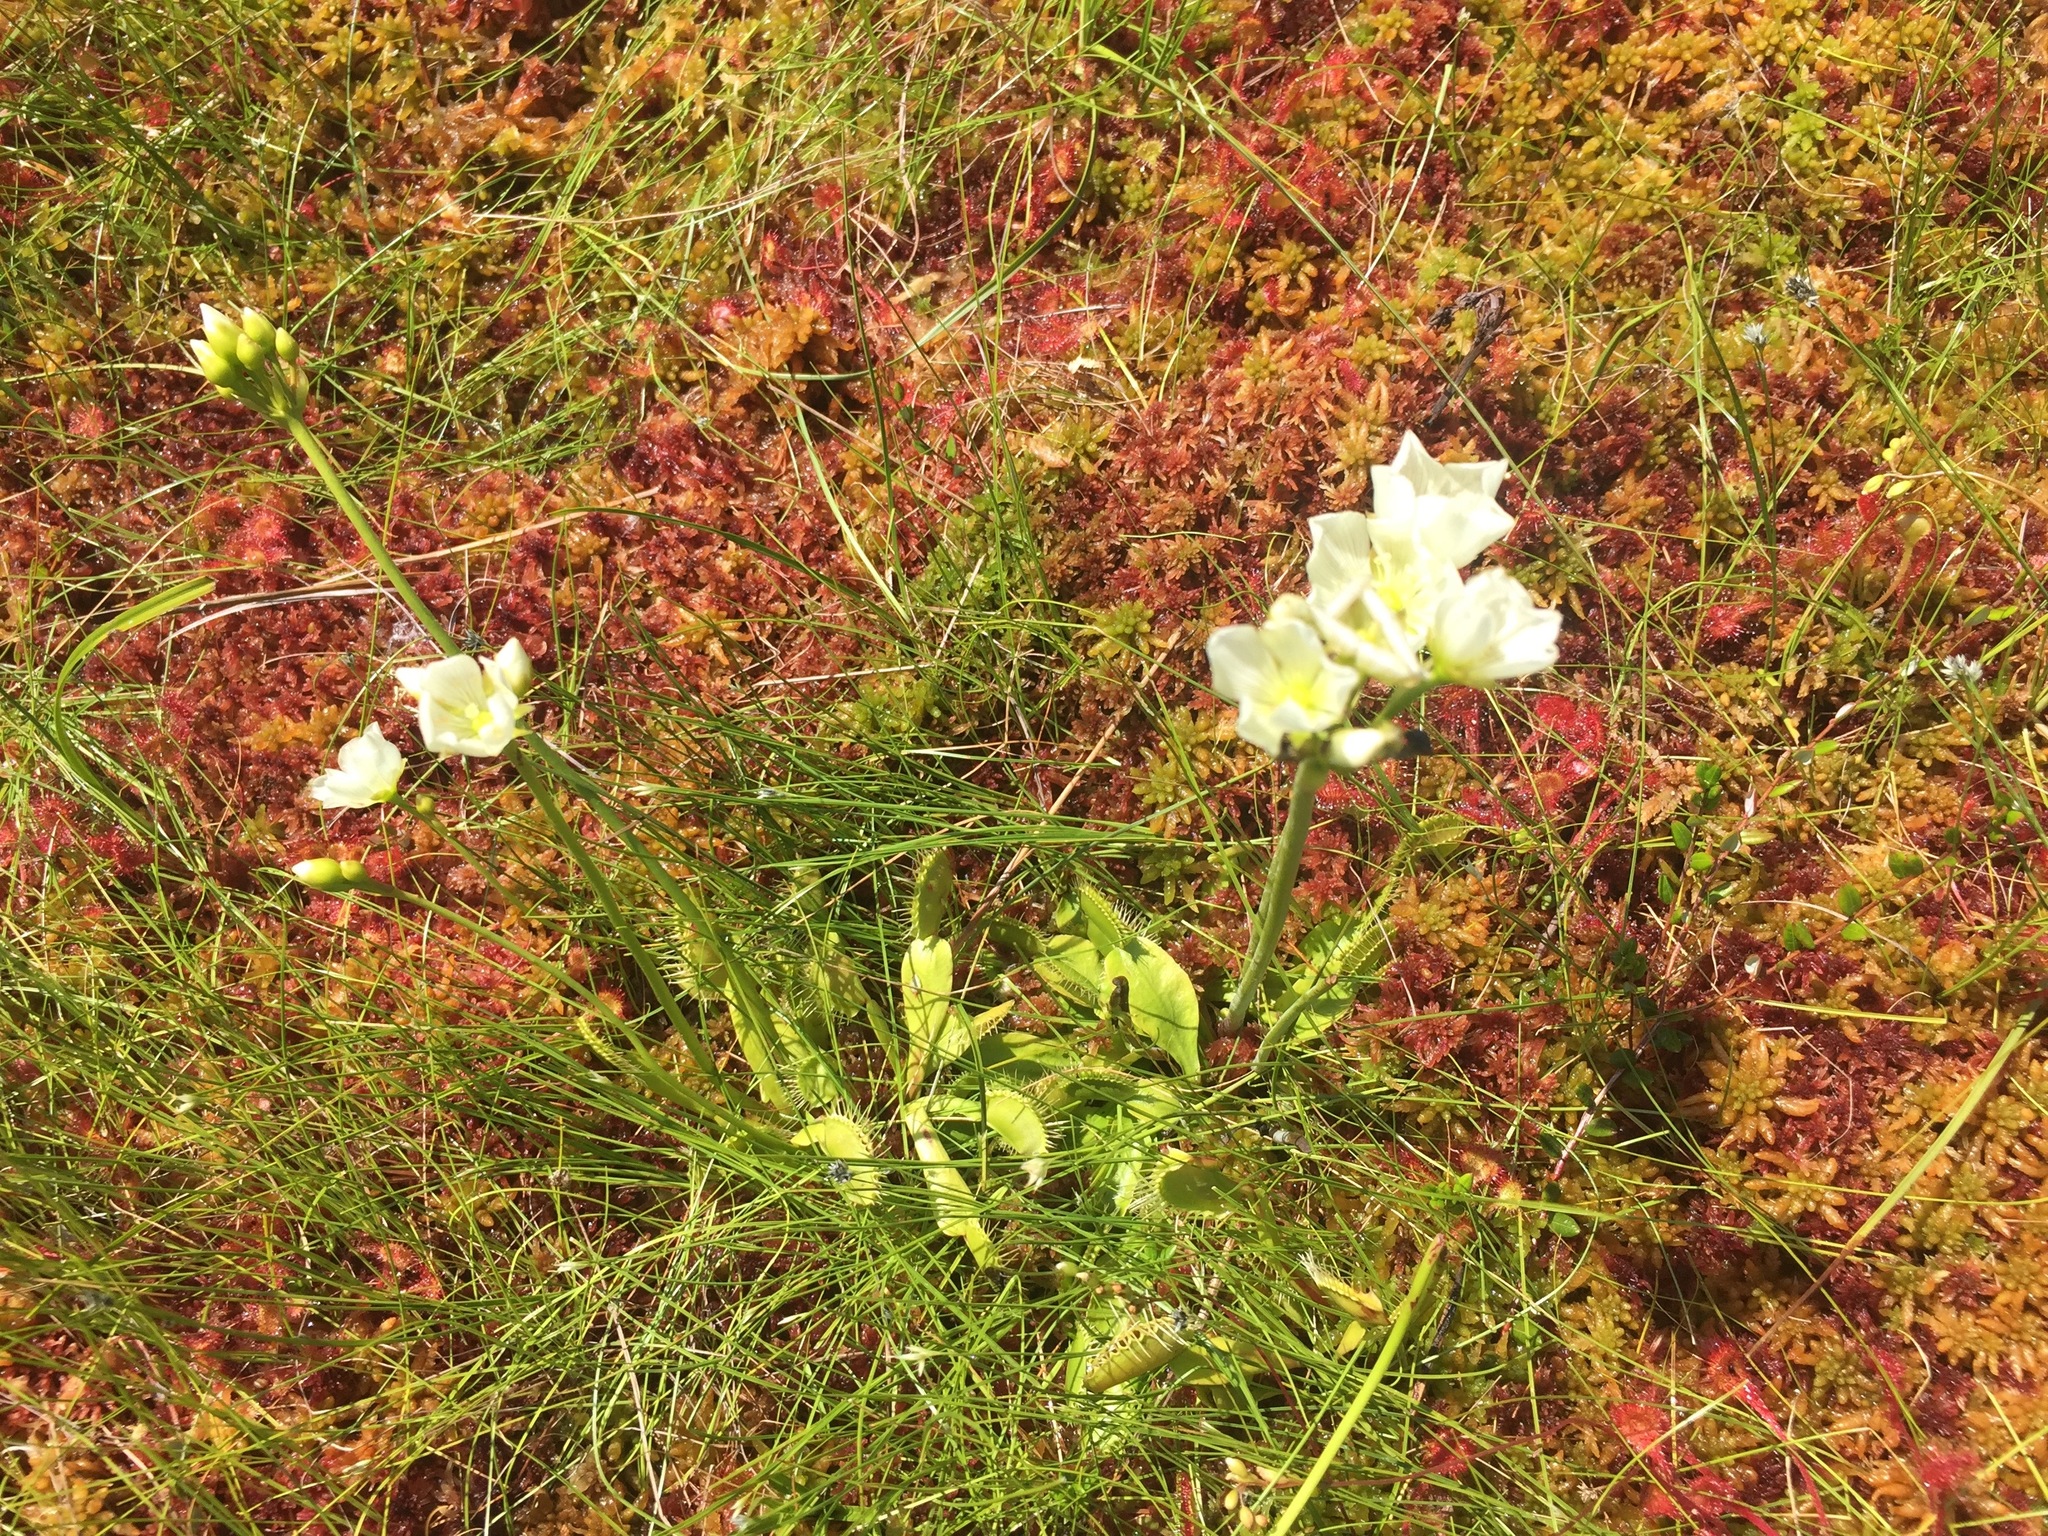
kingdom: Plantae
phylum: Tracheophyta
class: Magnoliopsida
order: Caryophyllales
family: Droseraceae
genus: Dionaea
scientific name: Dionaea muscipula
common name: Venus flytrap
